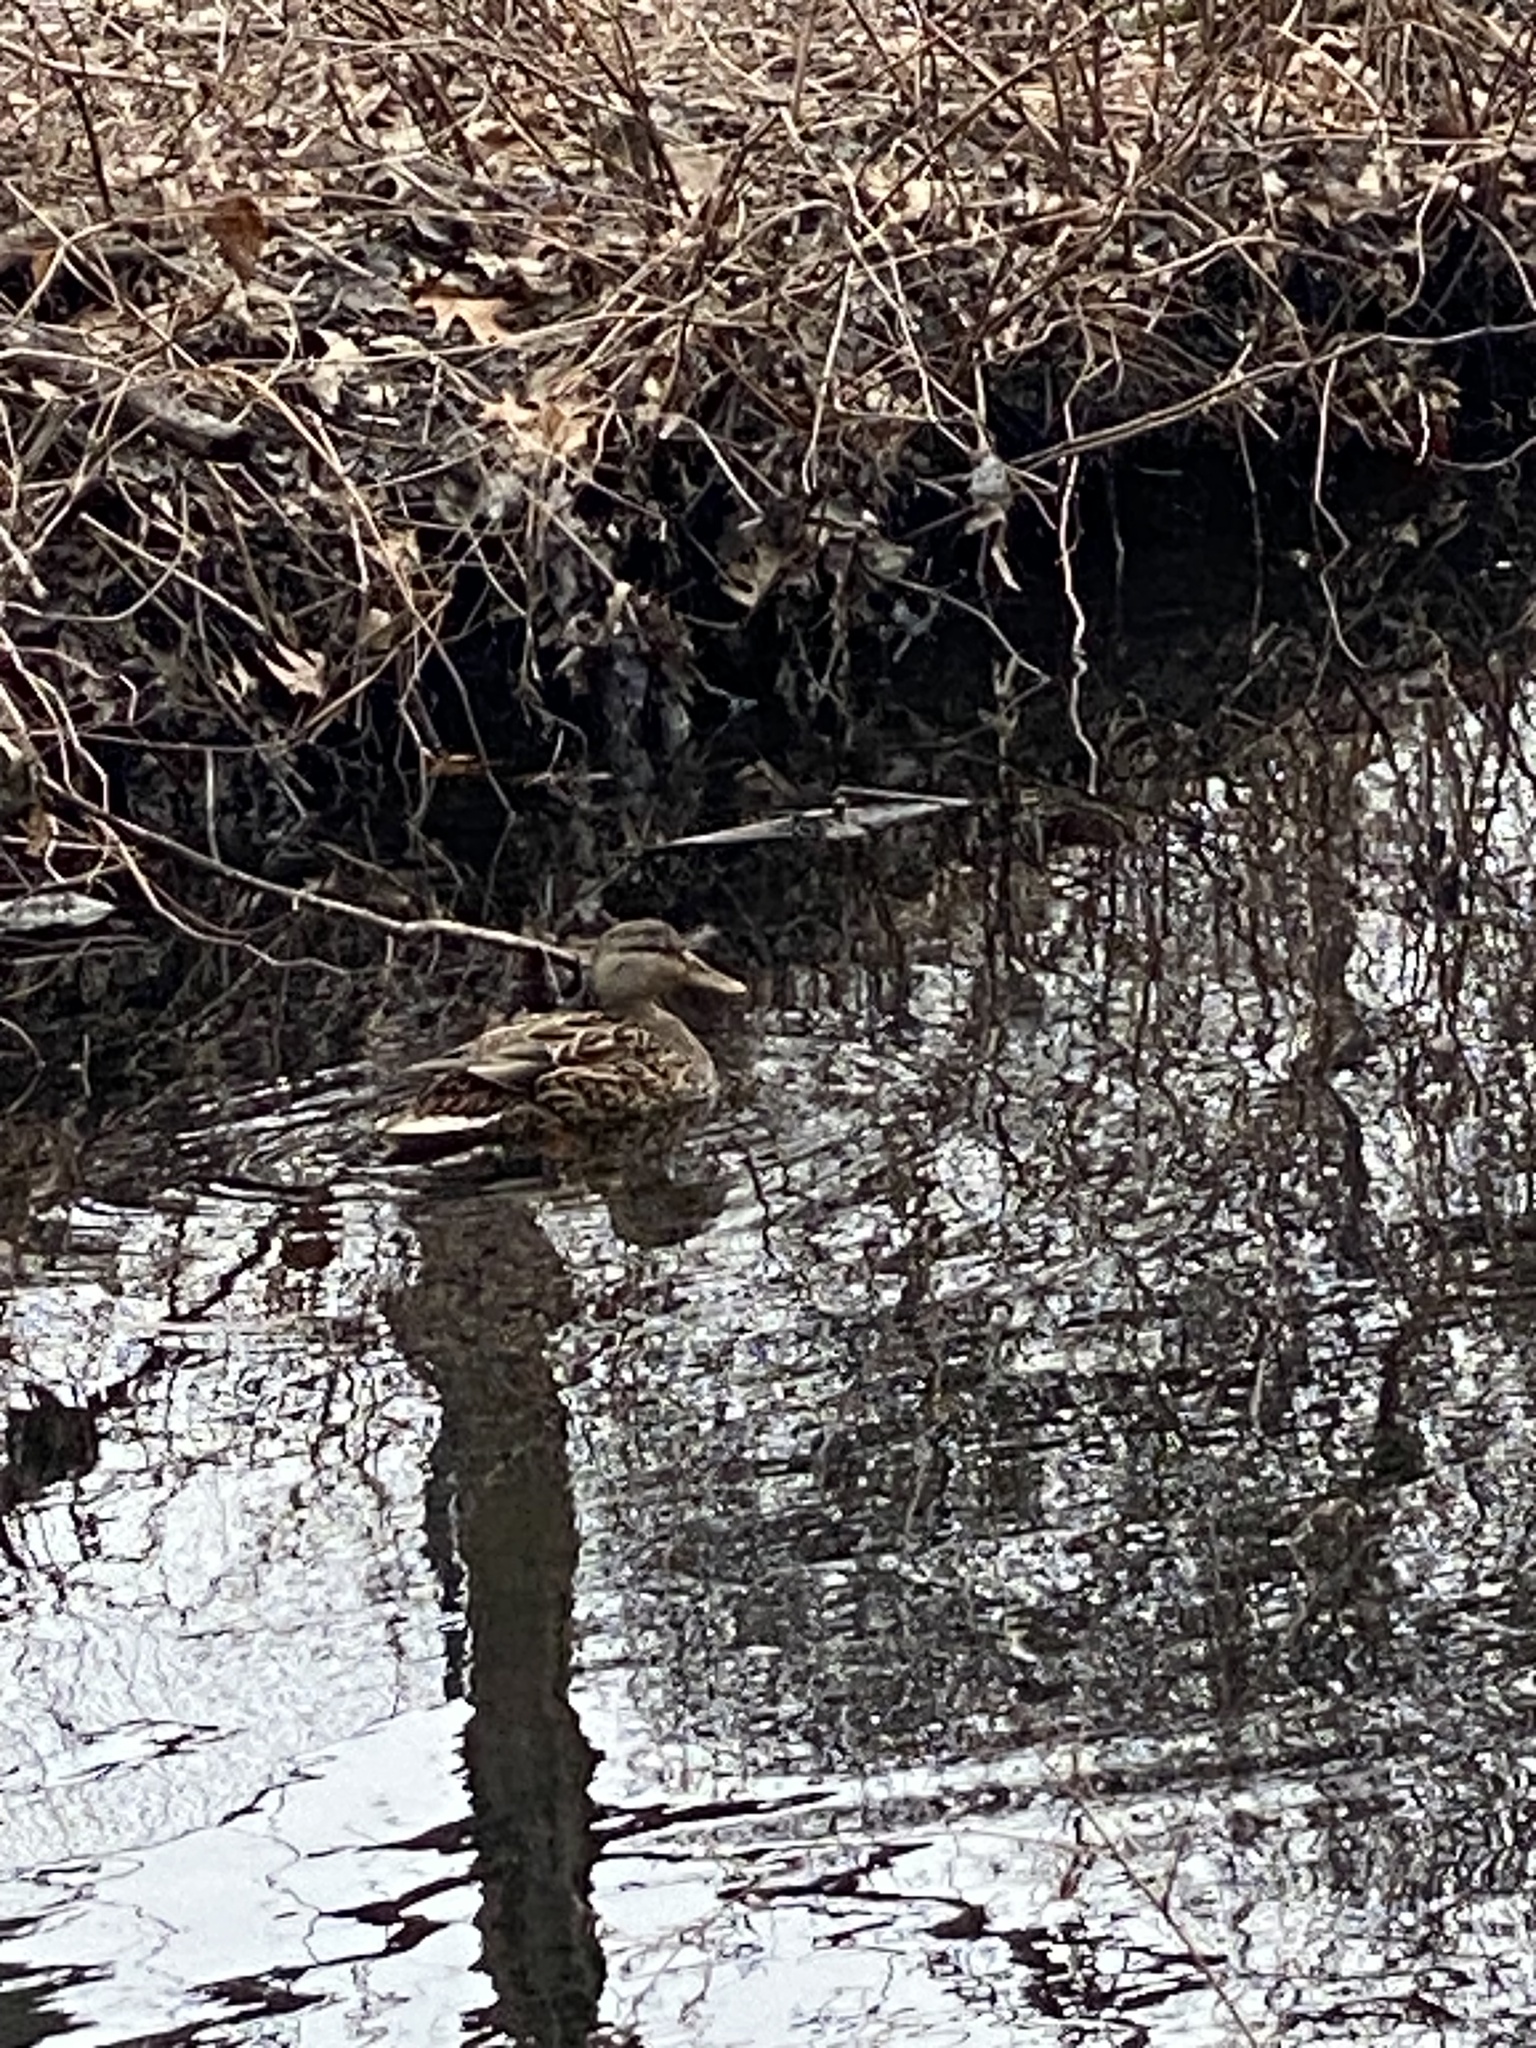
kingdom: Animalia
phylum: Chordata
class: Aves
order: Anseriformes
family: Anatidae
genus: Anas
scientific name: Anas platyrhynchos
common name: Mallard
